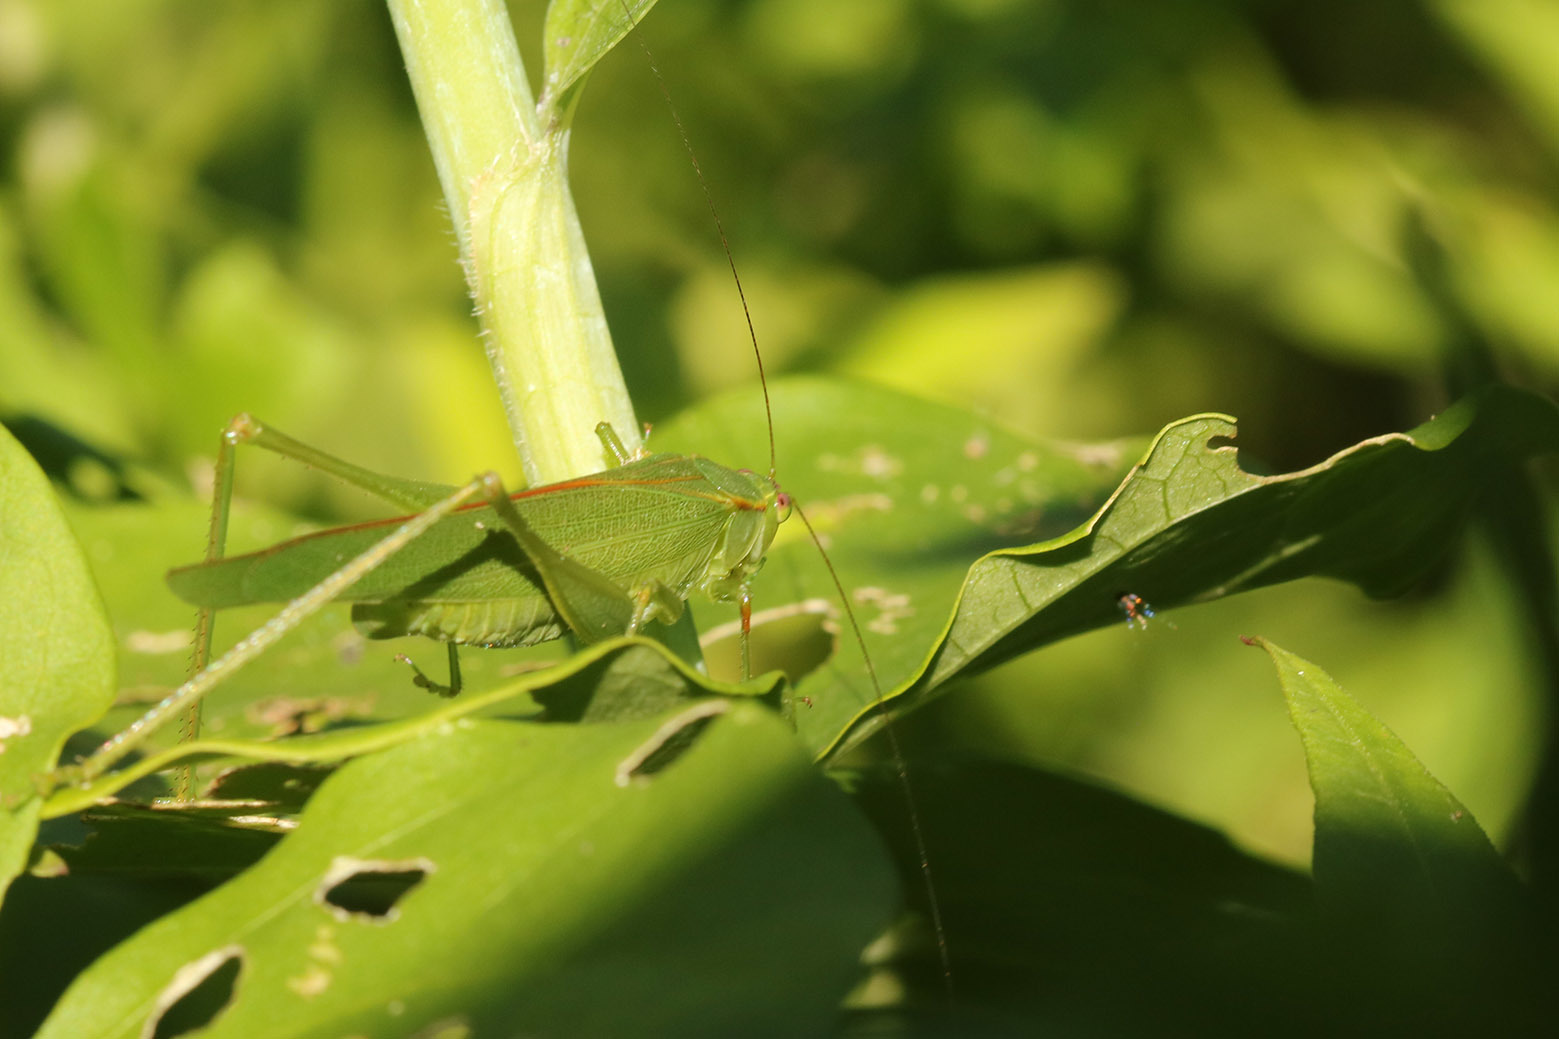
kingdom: Animalia
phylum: Arthropoda
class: Insecta
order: Orthoptera
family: Tettigoniidae
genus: Ligocatinus
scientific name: Ligocatinus spinatus
